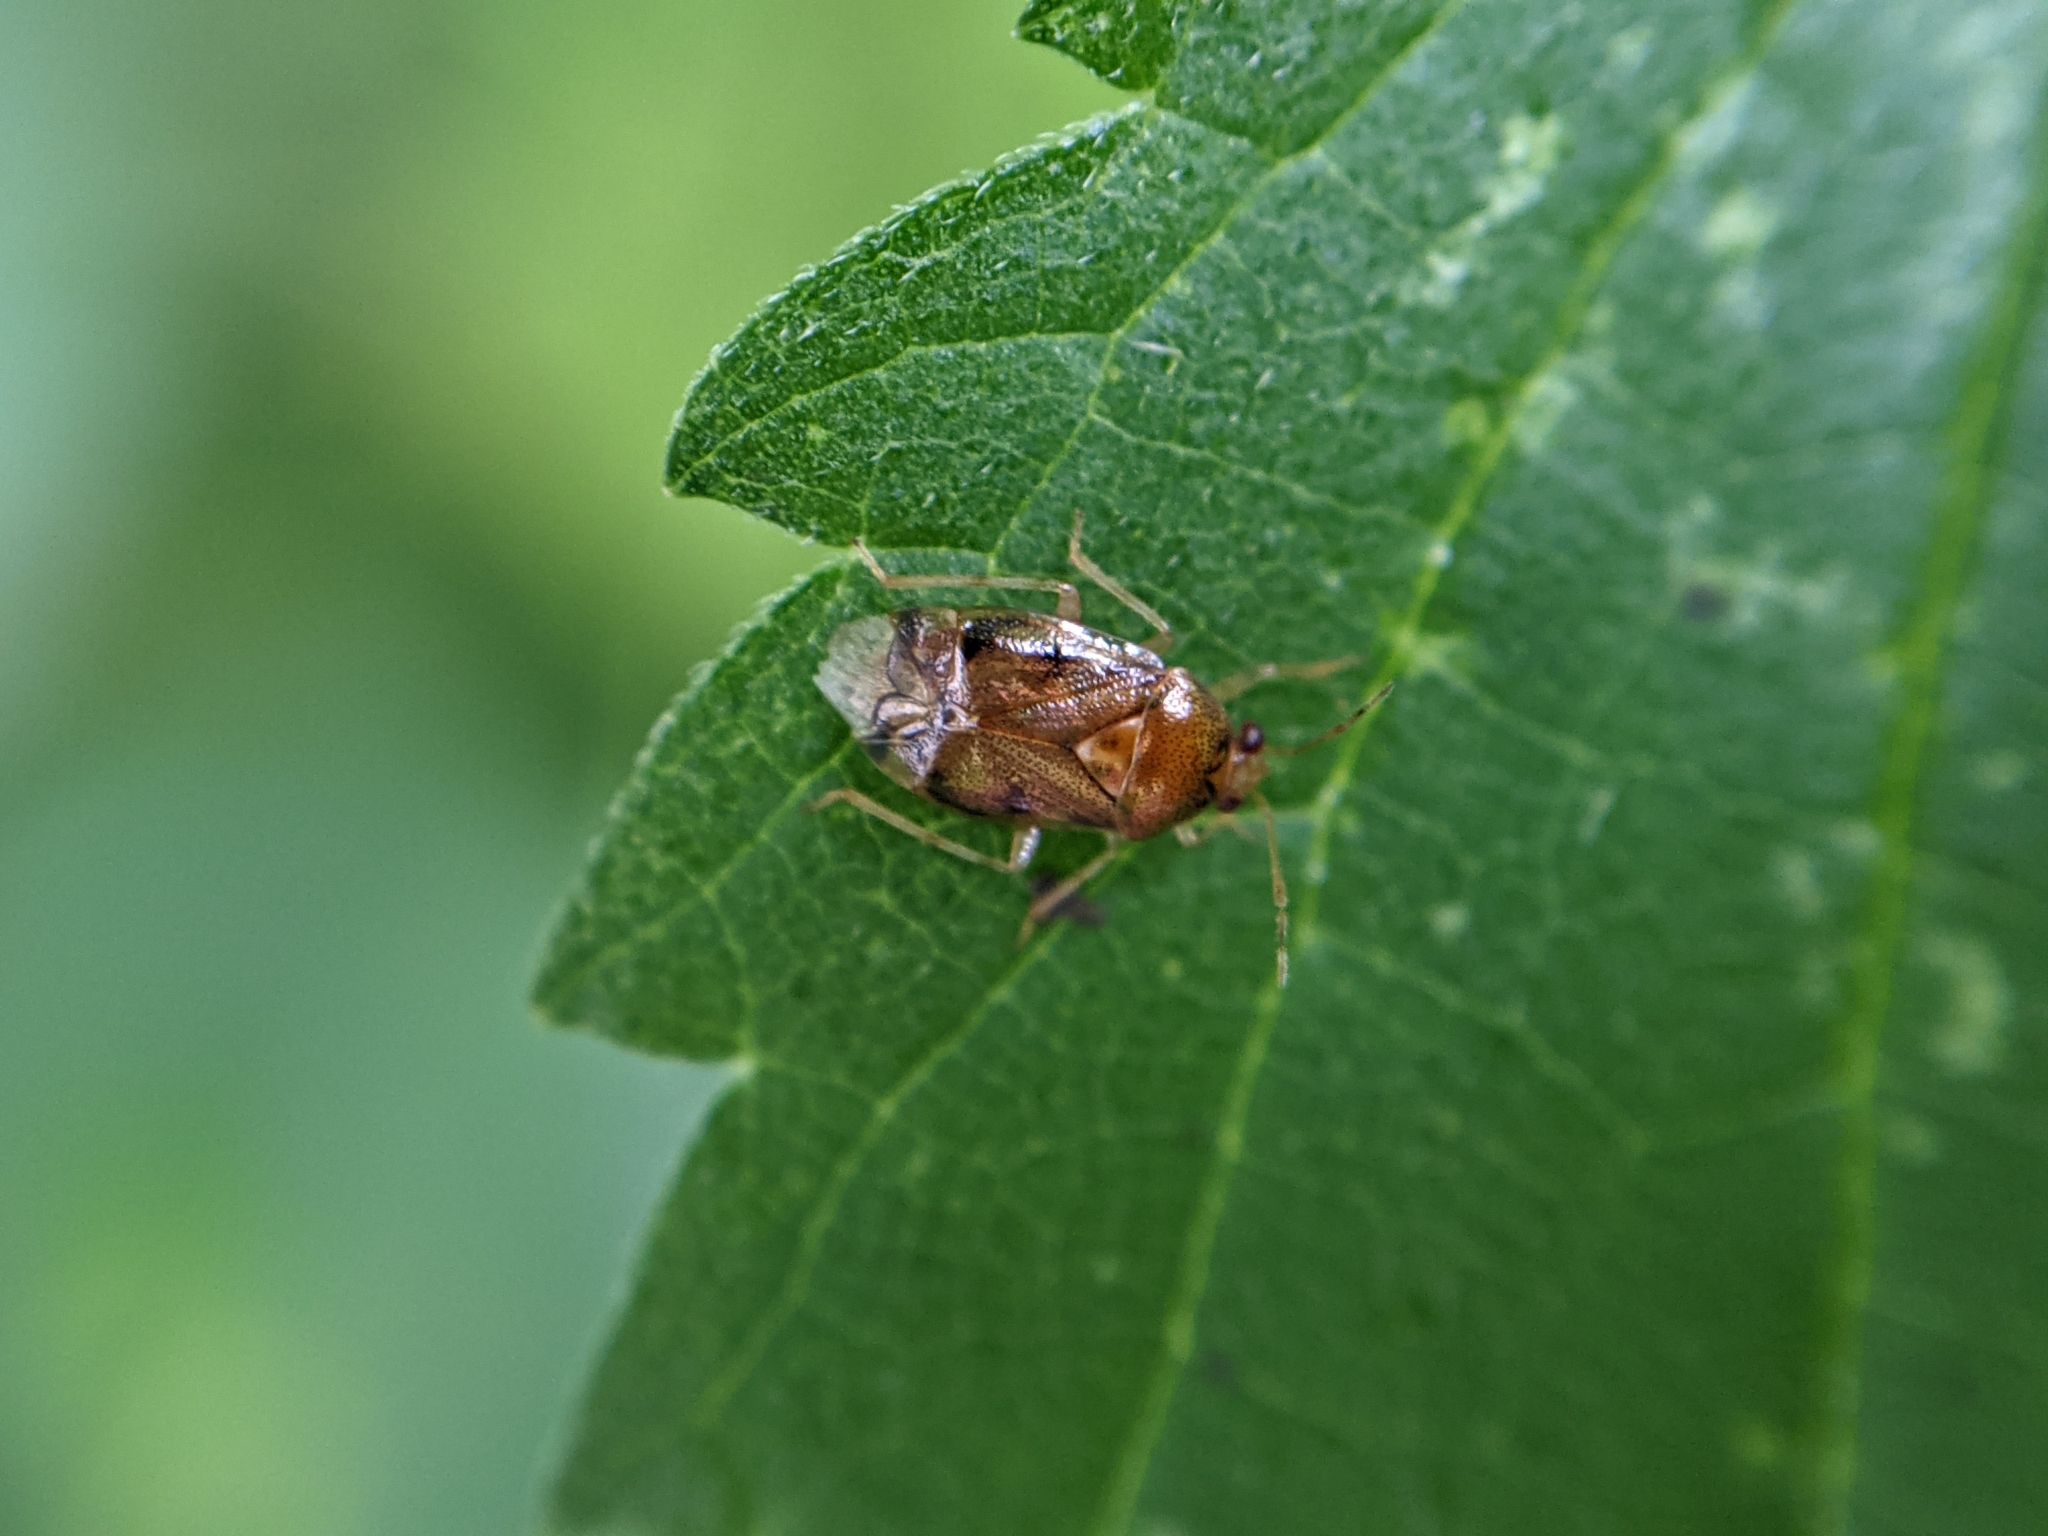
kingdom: Animalia
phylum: Arthropoda
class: Insecta
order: Hemiptera
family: Miridae
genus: Deraeocoris
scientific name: Deraeocoris lutescens
